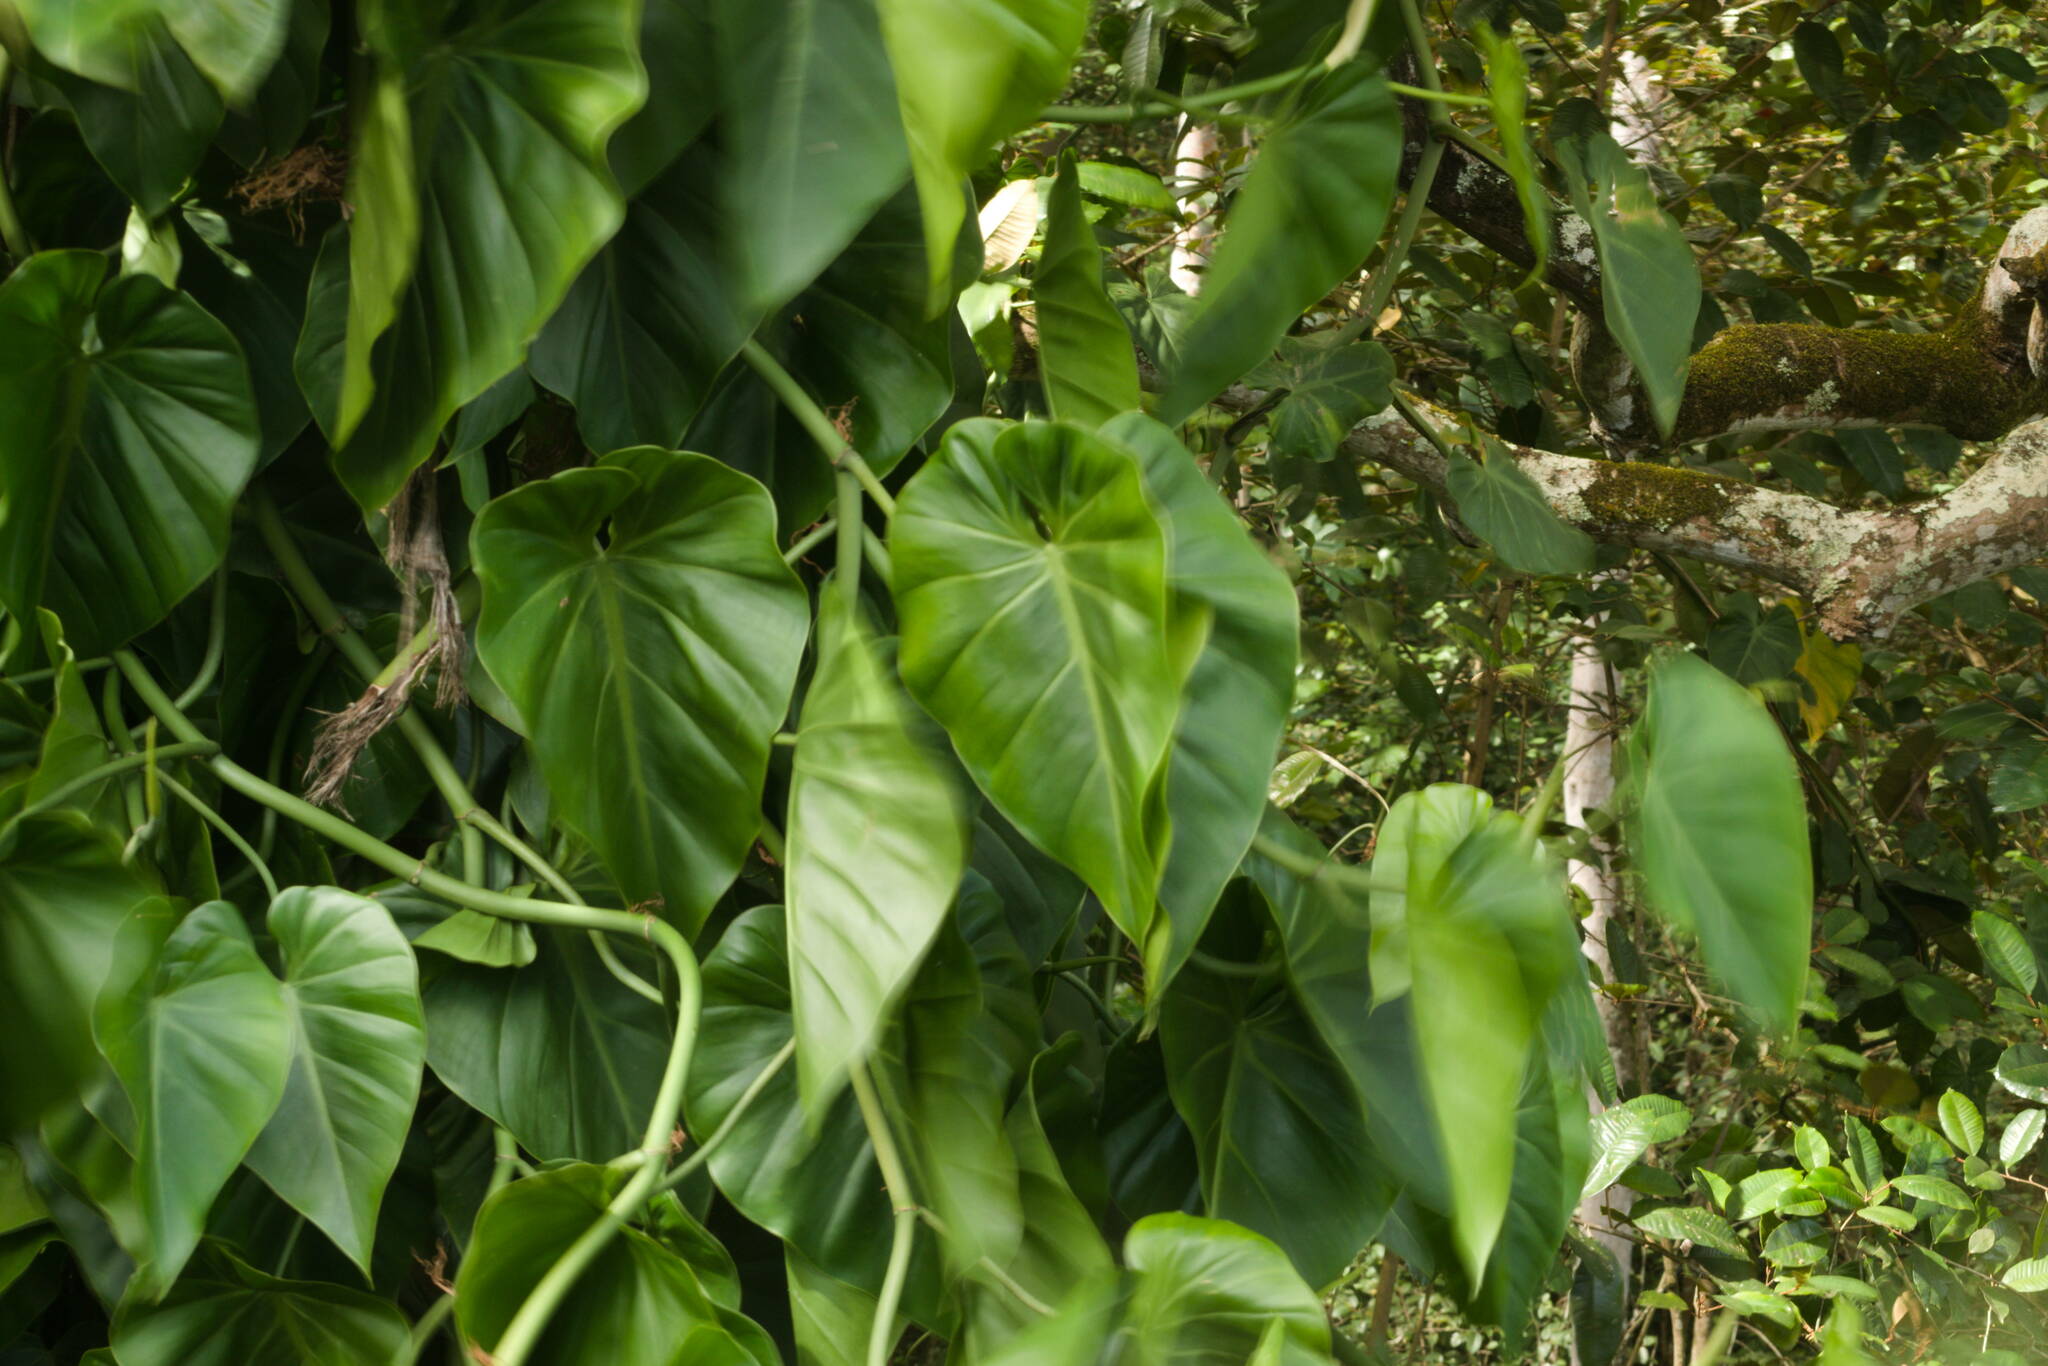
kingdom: Plantae
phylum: Tracheophyta
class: Liliopsida
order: Alismatales
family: Araceae
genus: Philodendron
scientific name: Philodendron hederaceum
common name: Vilevine
